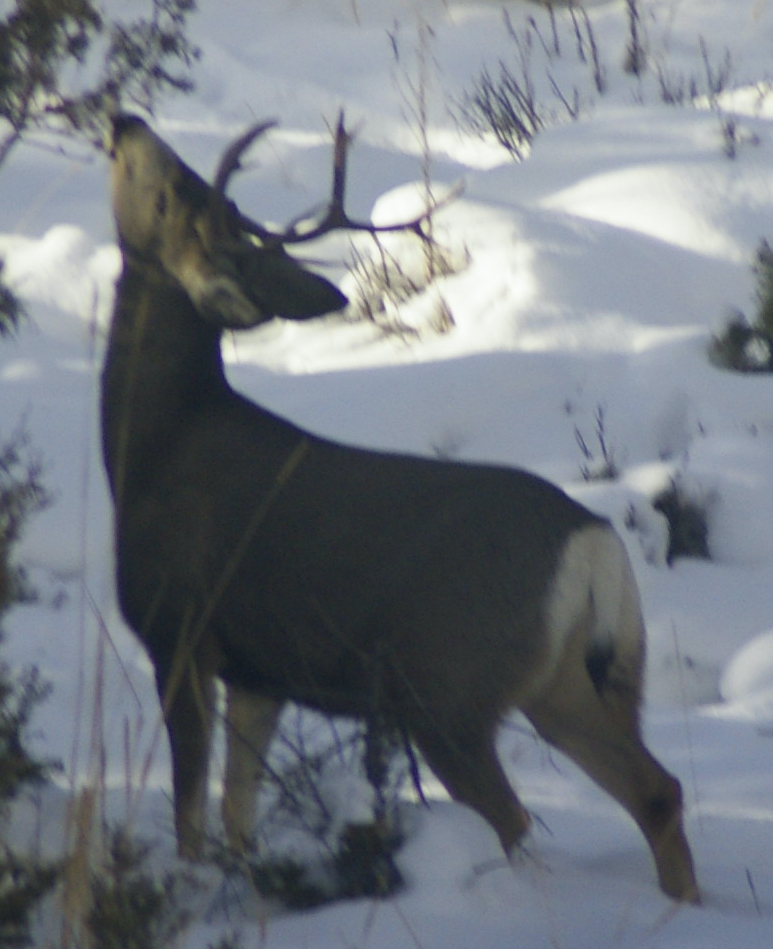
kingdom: Animalia
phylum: Chordata
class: Mammalia
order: Artiodactyla
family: Cervidae
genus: Odocoileus
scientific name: Odocoileus hemionus
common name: Mule deer
